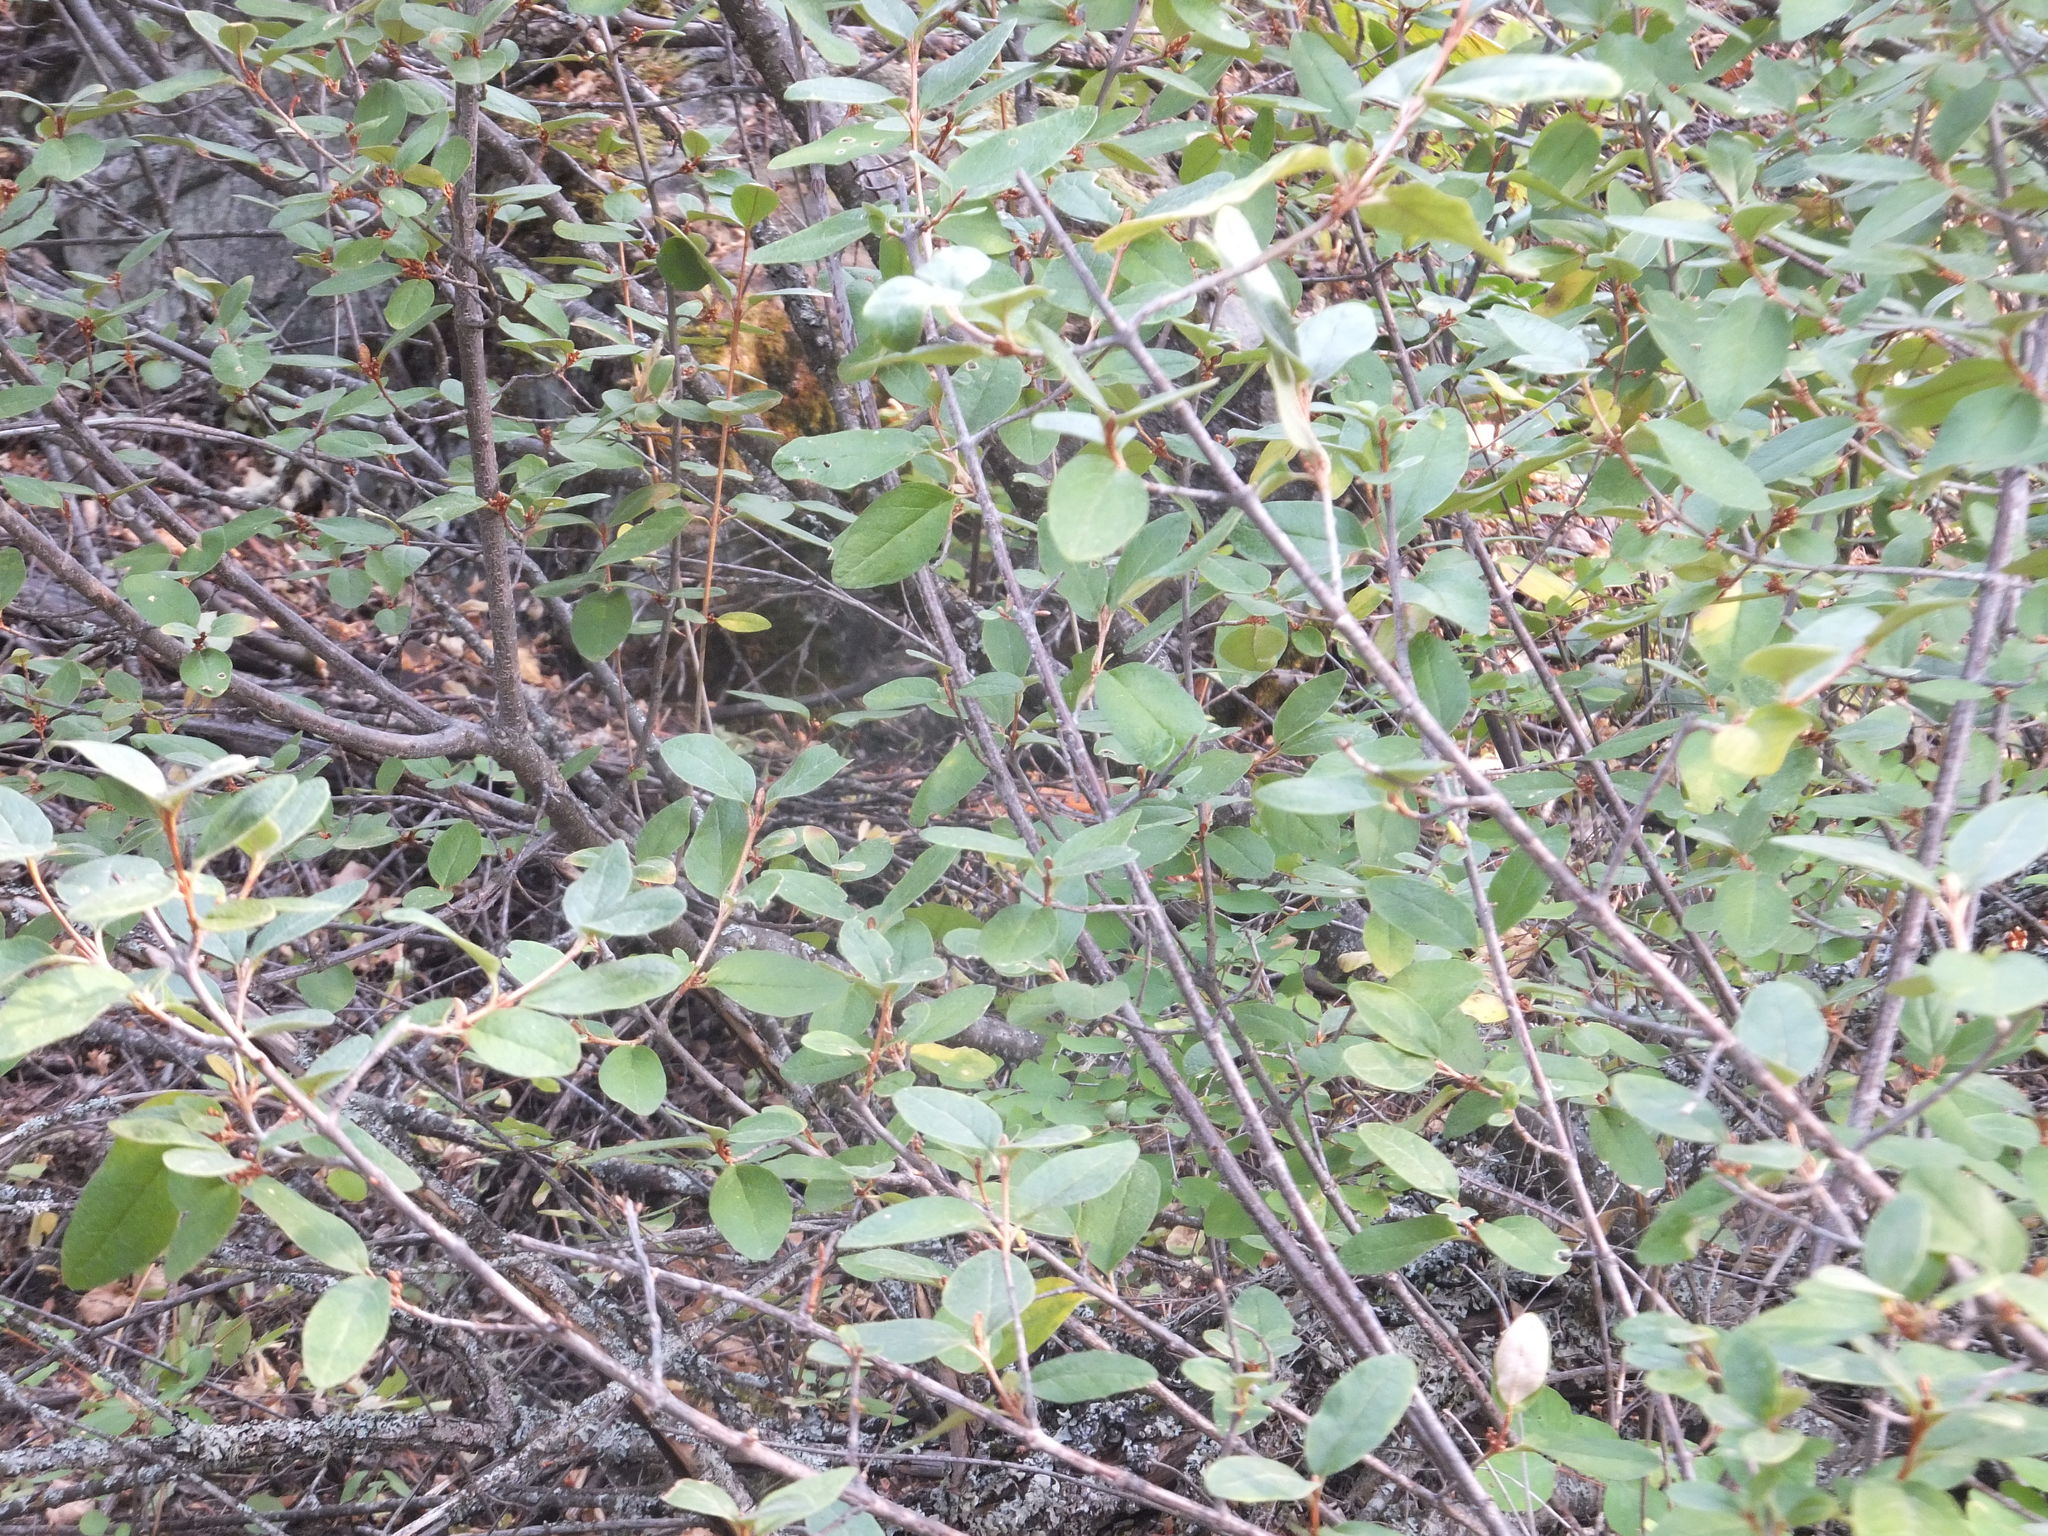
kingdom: Plantae
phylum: Tracheophyta
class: Magnoliopsida
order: Rosales
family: Elaeagnaceae
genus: Shepherdia
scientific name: Shepherdia canadensis
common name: Soapberry
